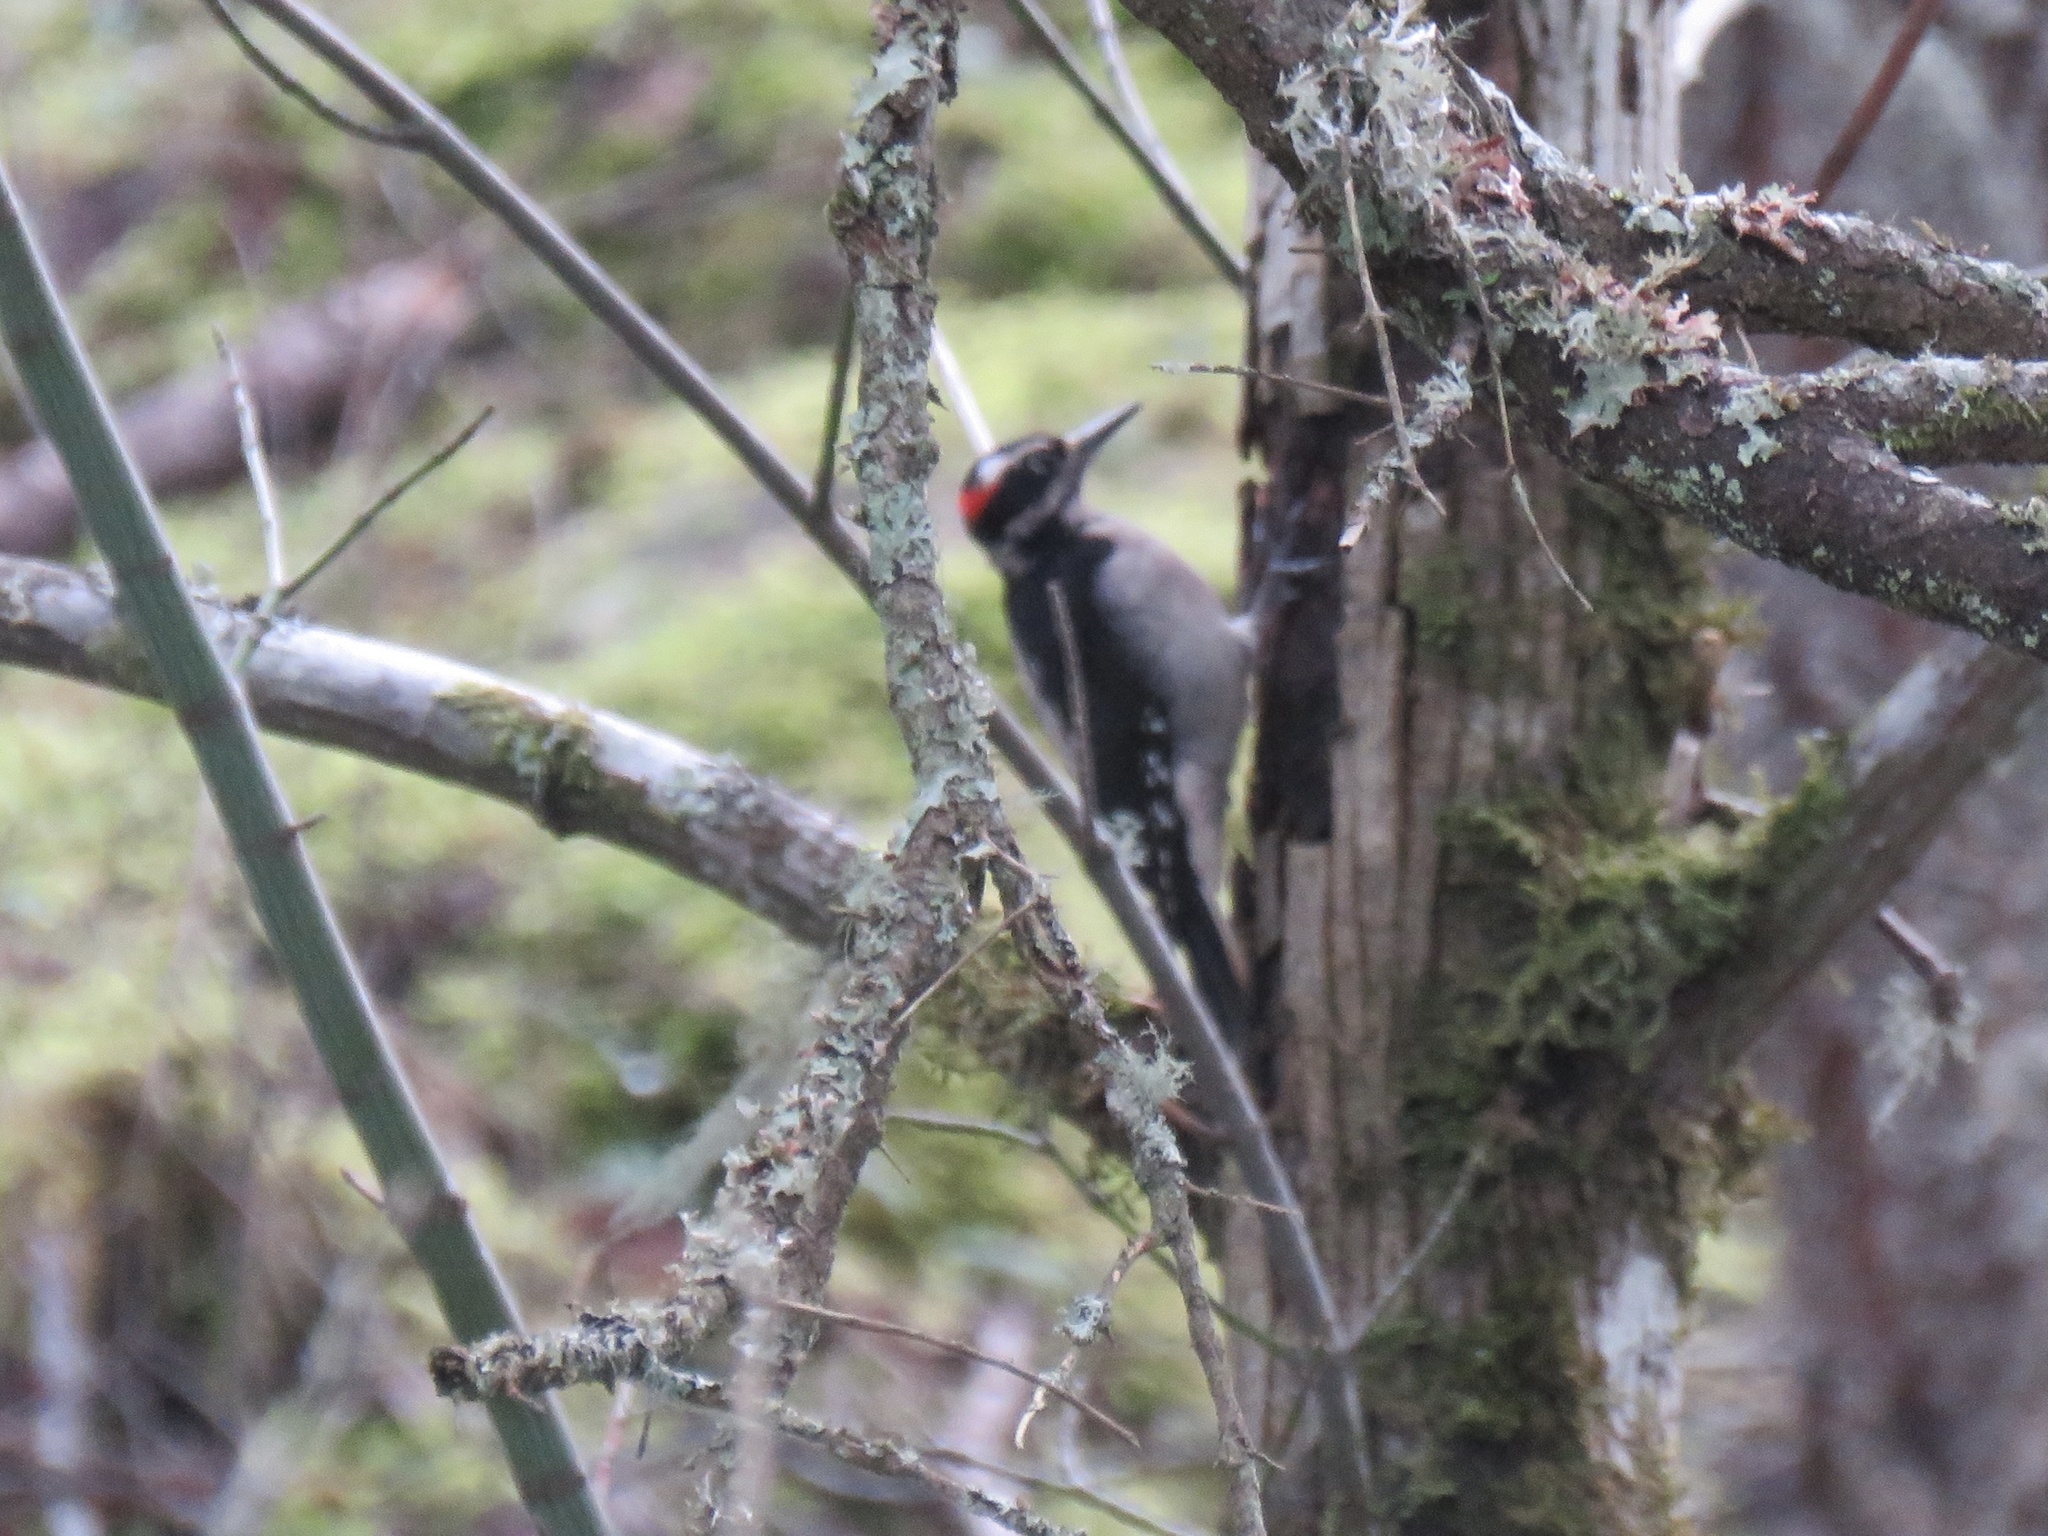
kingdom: Animalia
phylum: Chordata
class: Aves
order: Piciformes
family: Picidae
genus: Leuconotopicus
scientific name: Leuconotopicus villosus
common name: Hairy woodpecker
